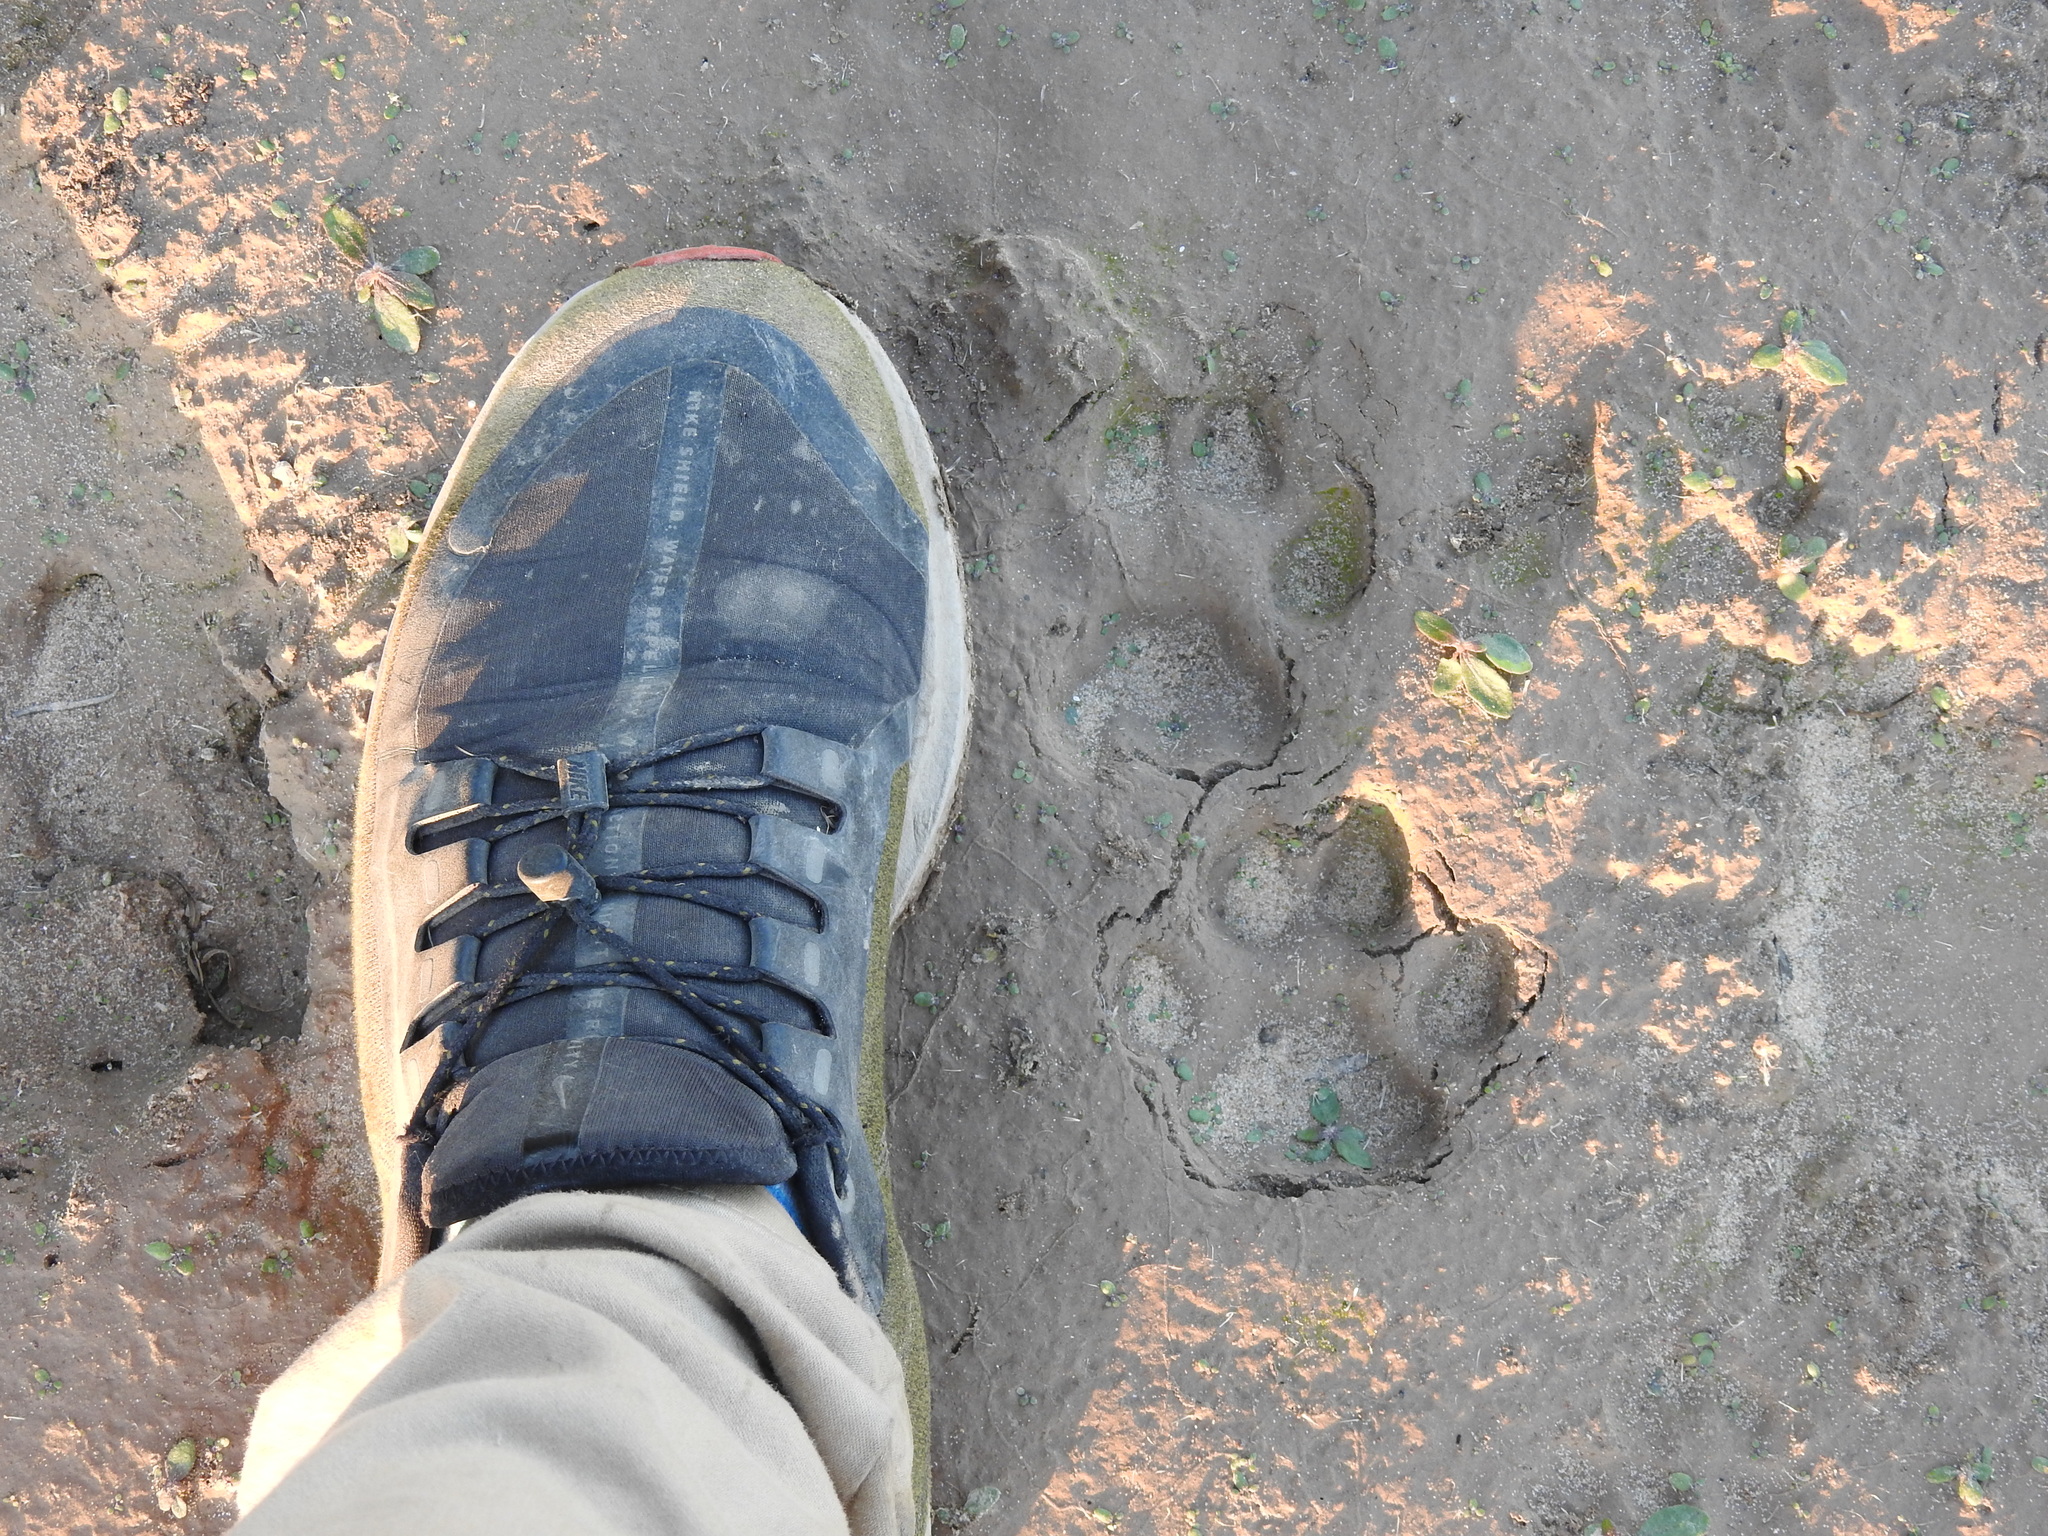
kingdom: Animalia
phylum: Chordata
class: Mammalia
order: Carnivora
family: Felidae
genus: Puma
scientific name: Puma concolor
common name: Puma
